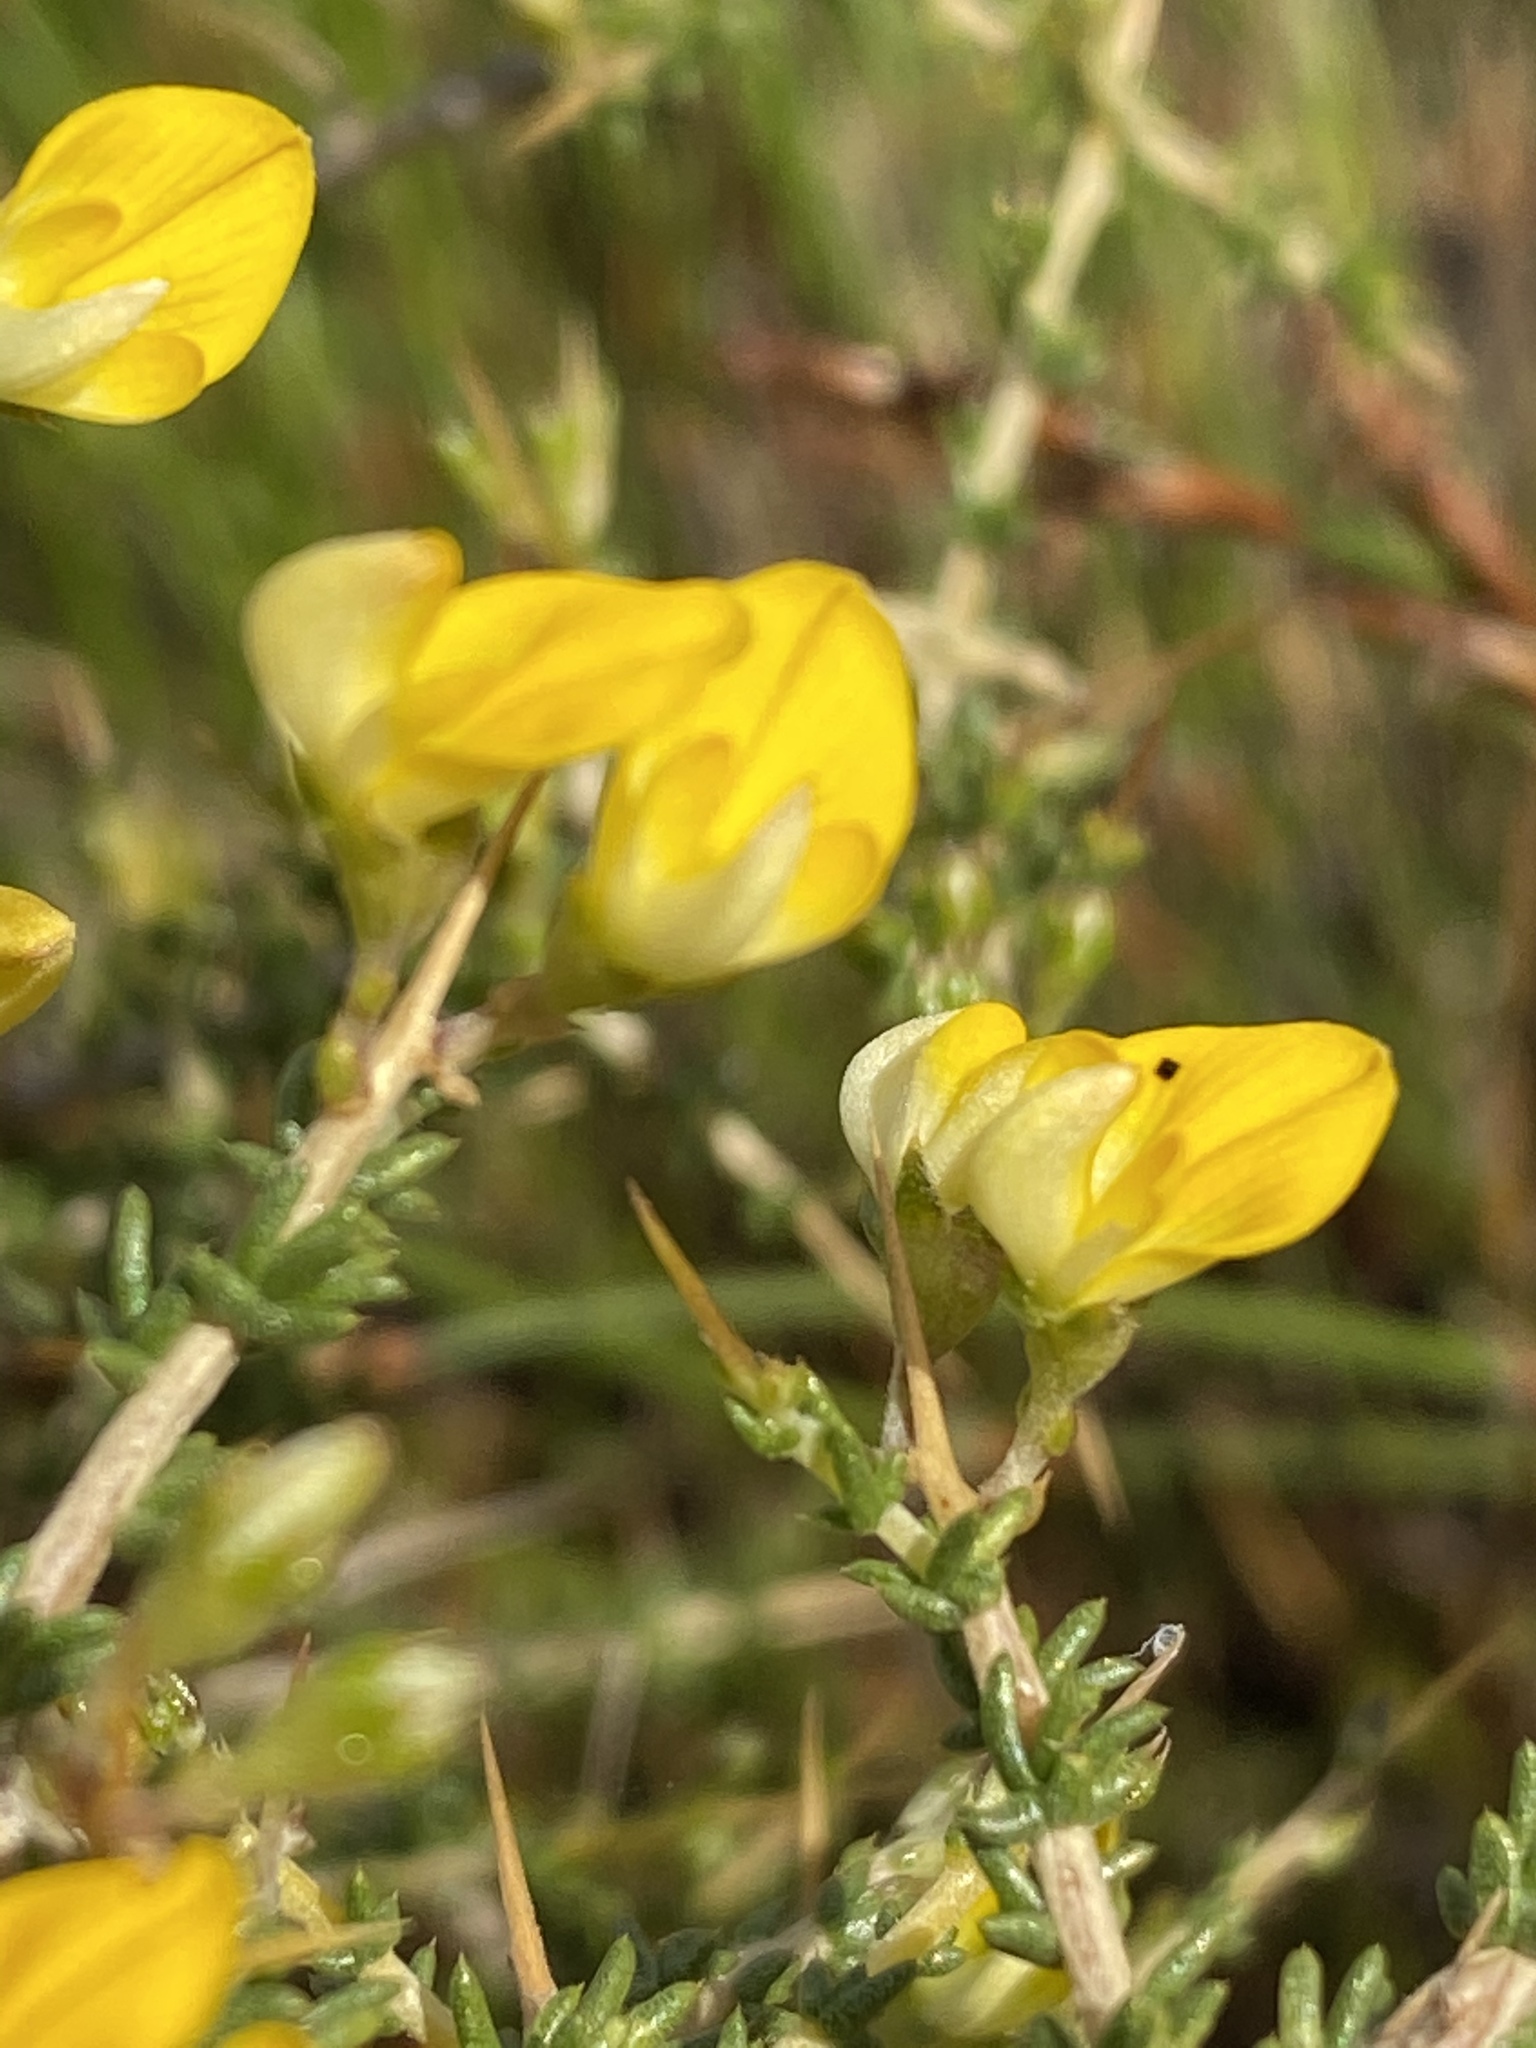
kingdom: Plantae
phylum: Tracheophyta
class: Magnoliopsida
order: Fabales
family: Fabaceae
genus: Aspalathus
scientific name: Aspalathus acuminata
